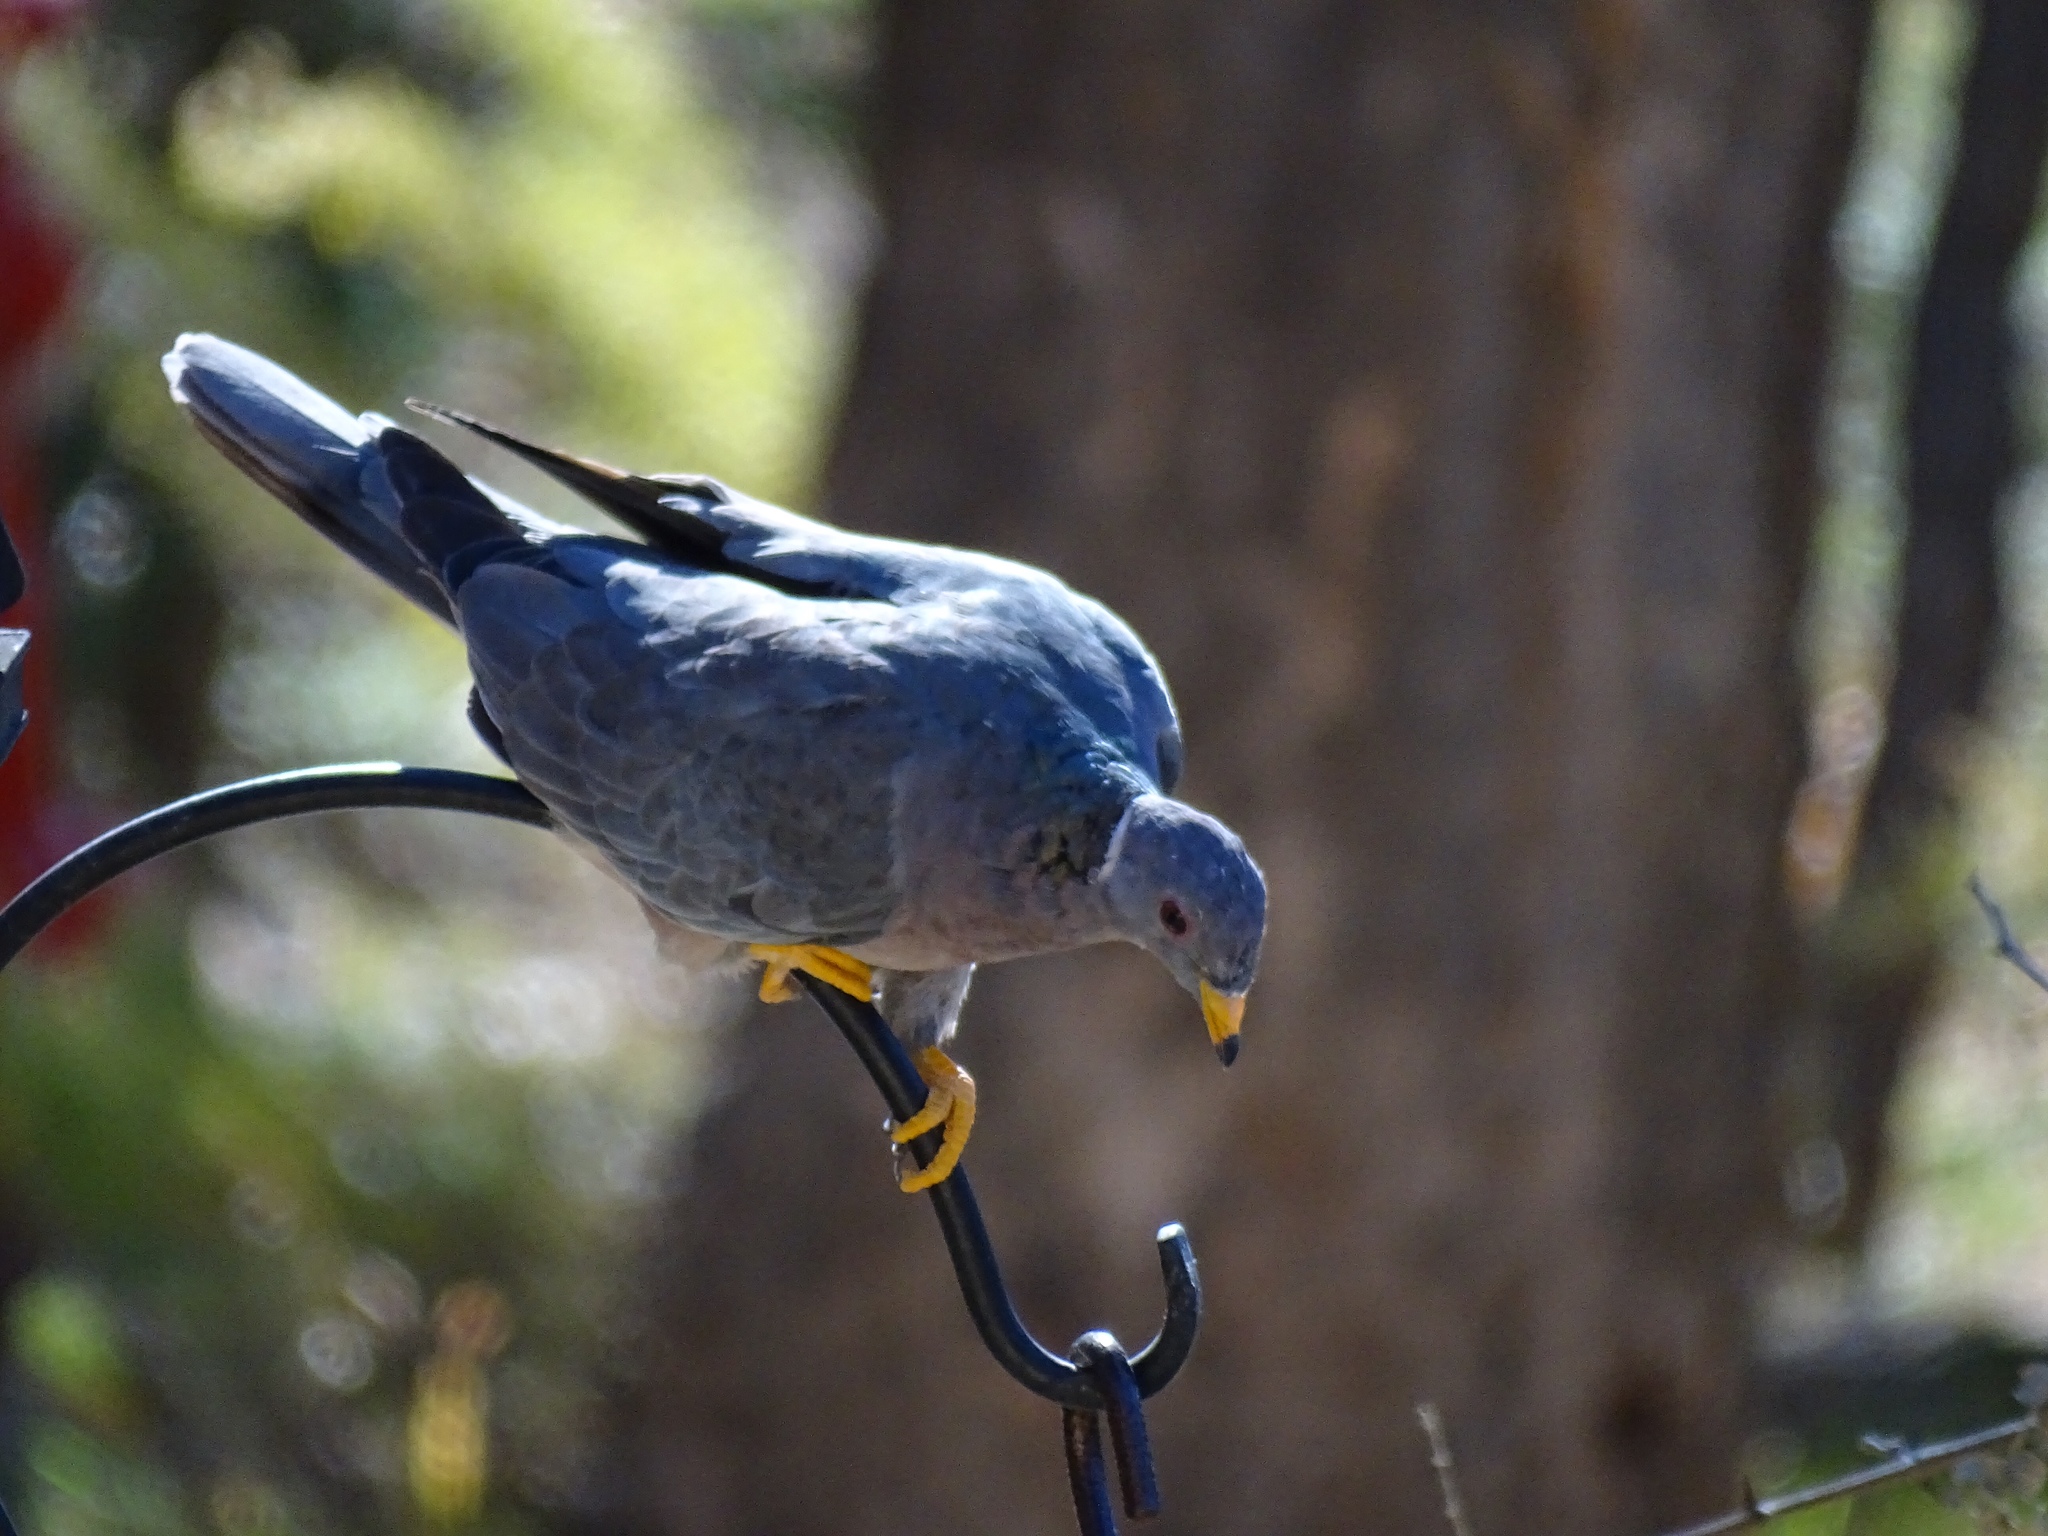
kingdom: Animalia
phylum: Chordata
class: Aves
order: Columbiformes
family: Columbidae
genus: Patagioenas
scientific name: Patagioenas fasciata
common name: Band-tailed pigeon
